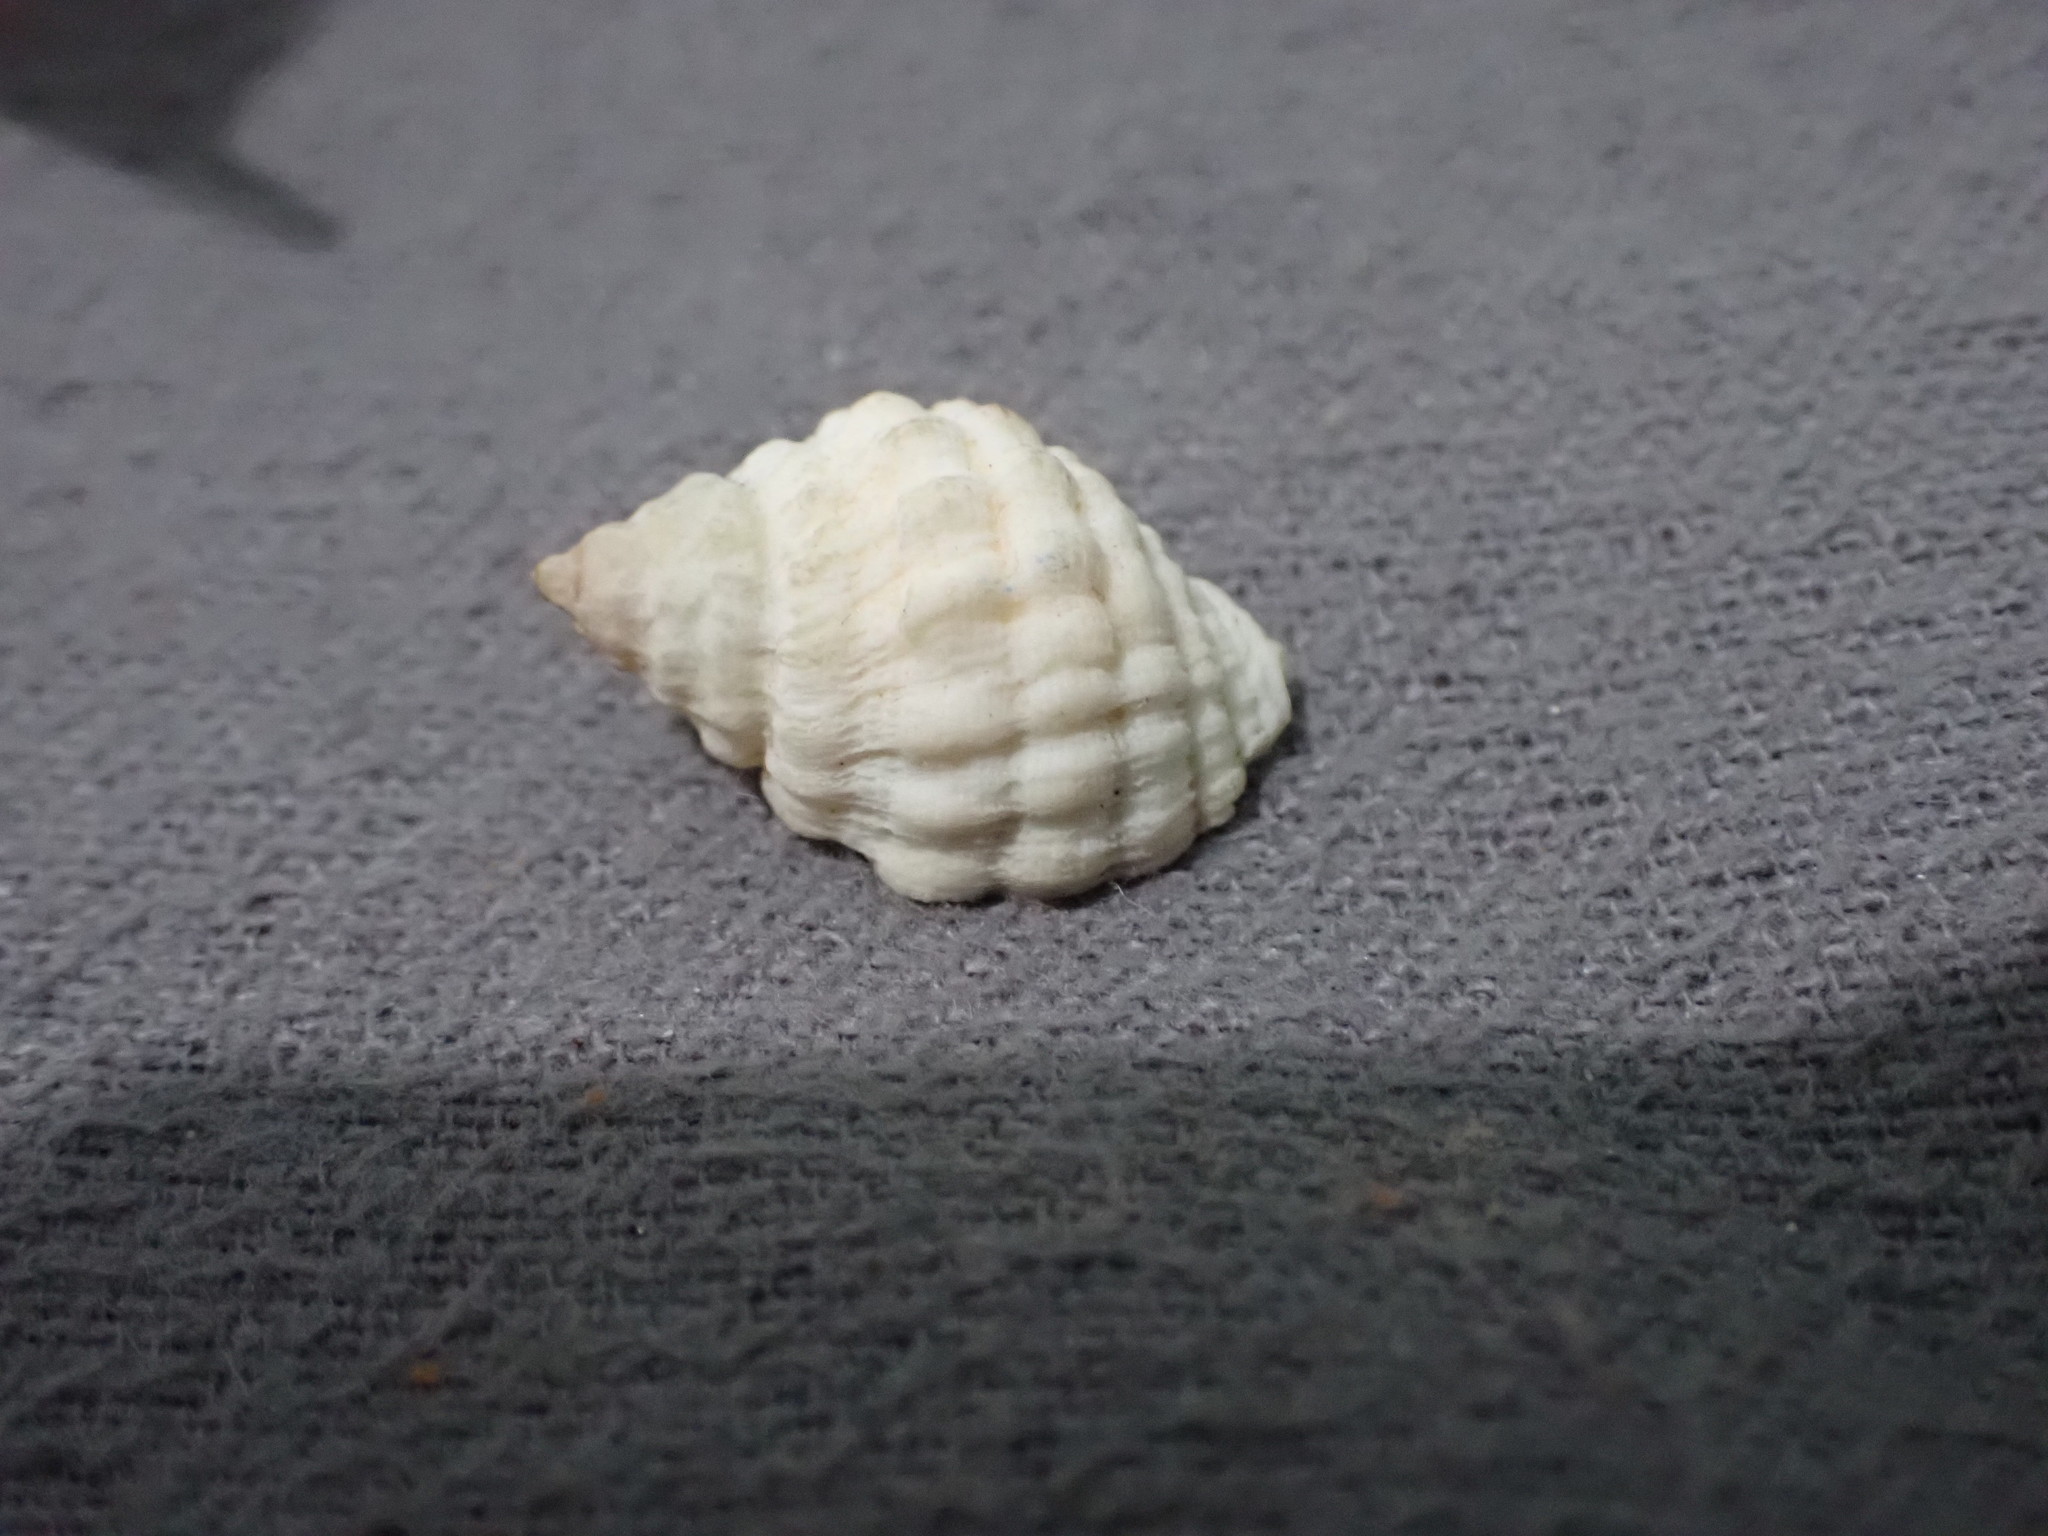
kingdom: Animalia
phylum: Mollusca
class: Gastropoda
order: Neogastropoda
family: Muricidae
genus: Neothais
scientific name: Neothais smithi
